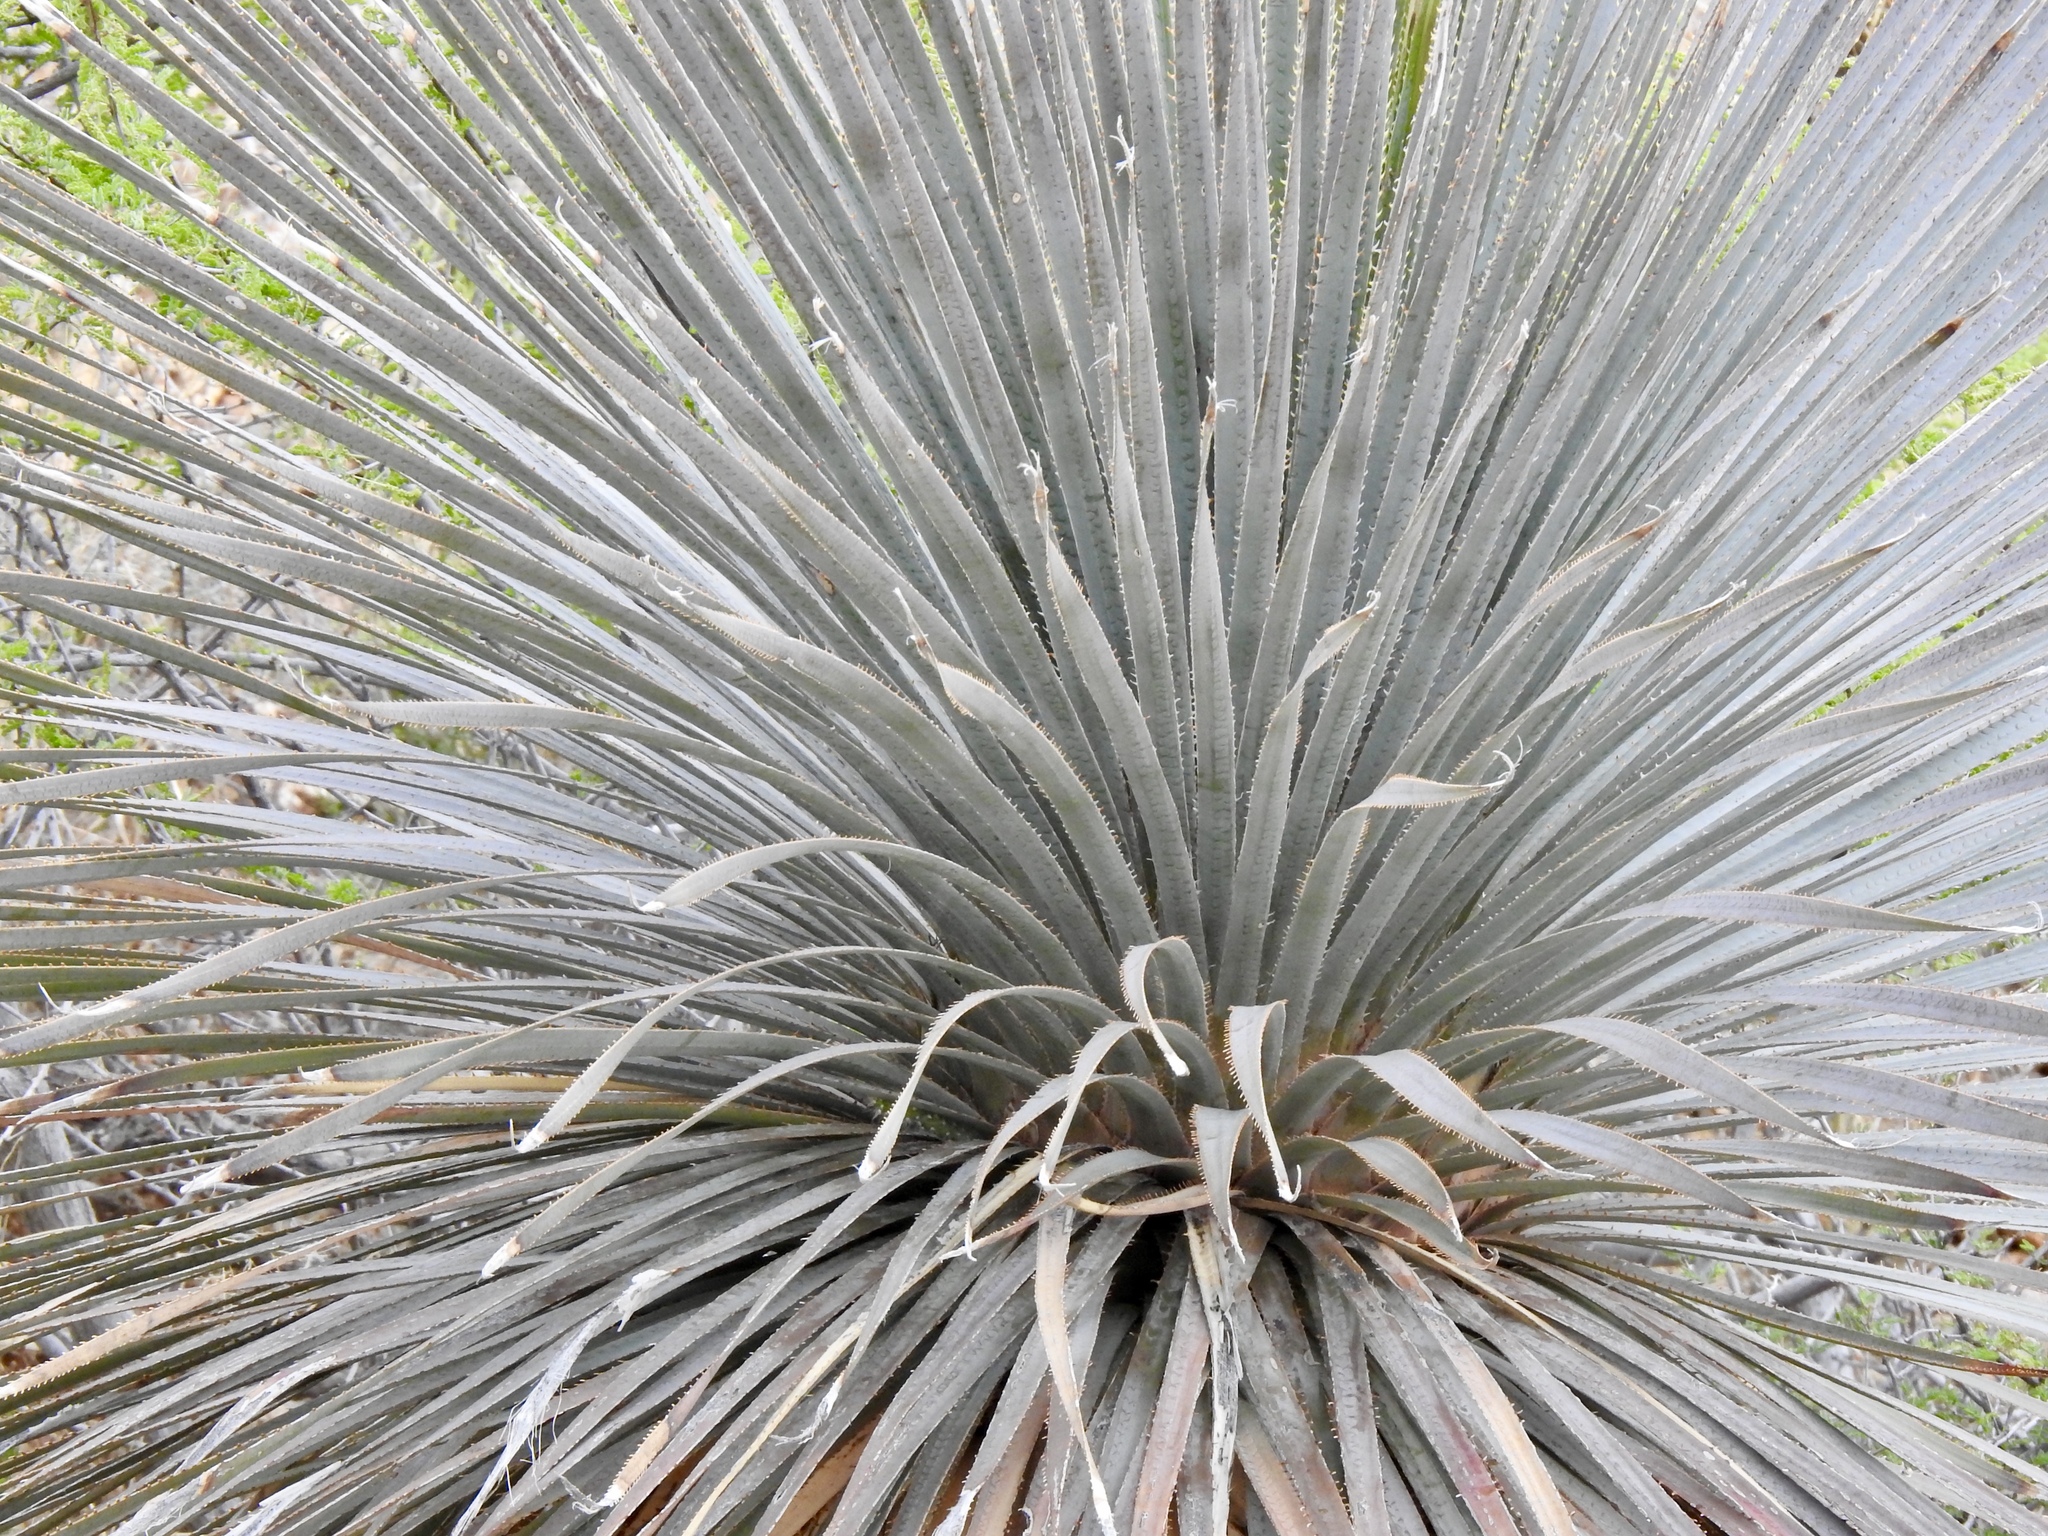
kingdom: Plantae
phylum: Tracheophyta
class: Liliopsida
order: Asparagales
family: Asparagaceae
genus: Dasylirion
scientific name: Dasylirion wheeleri
